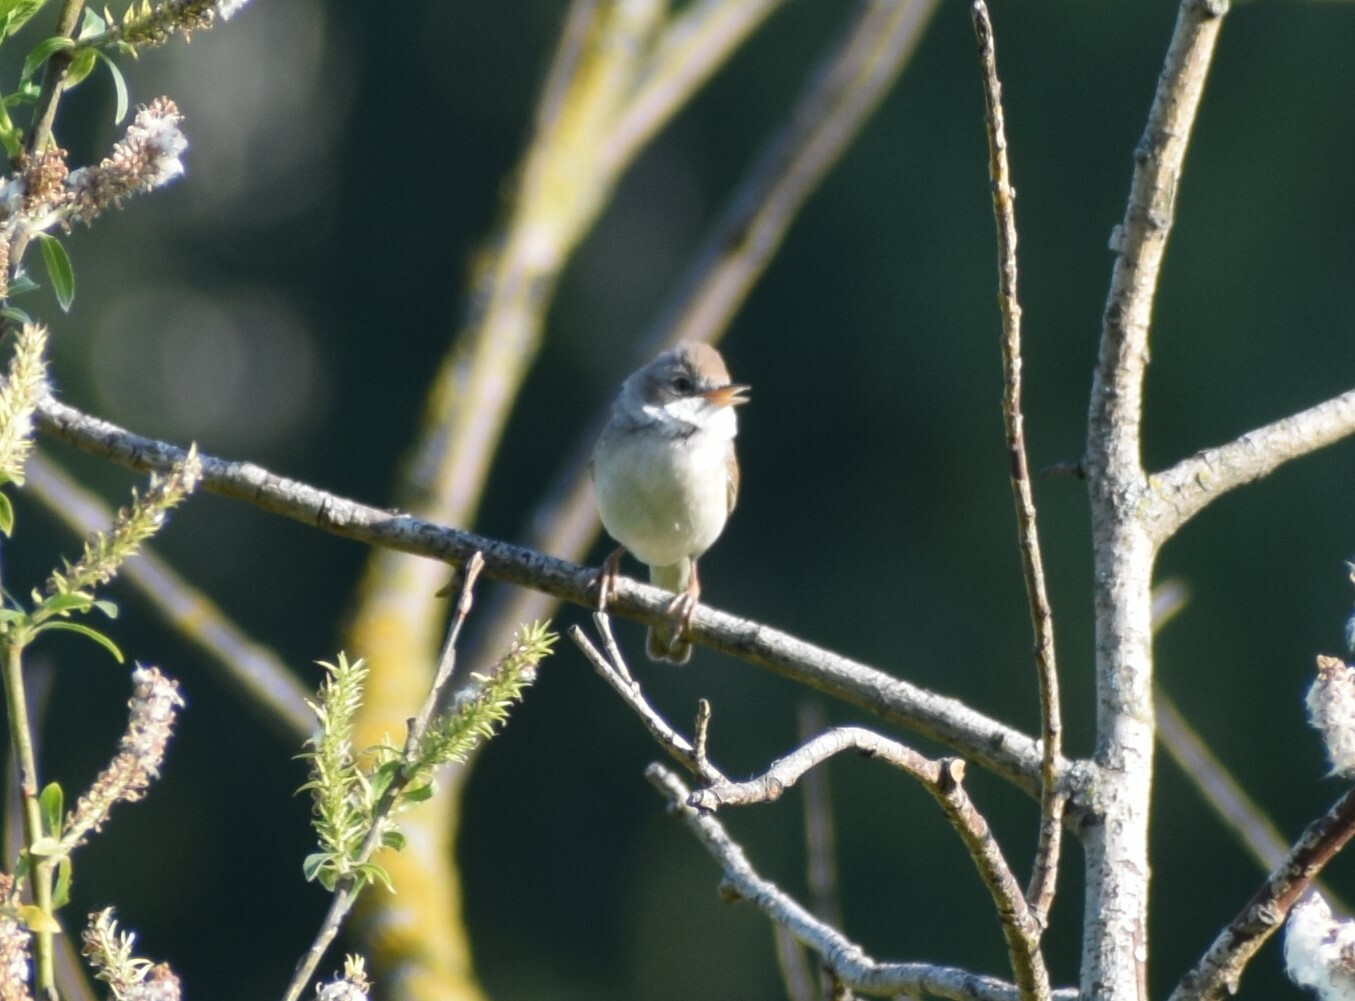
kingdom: Animalia
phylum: Chordata
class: Aves
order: Passeriformes
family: Sylviidae
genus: Sylvia
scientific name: Sylvia communis
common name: Common whitethroat
